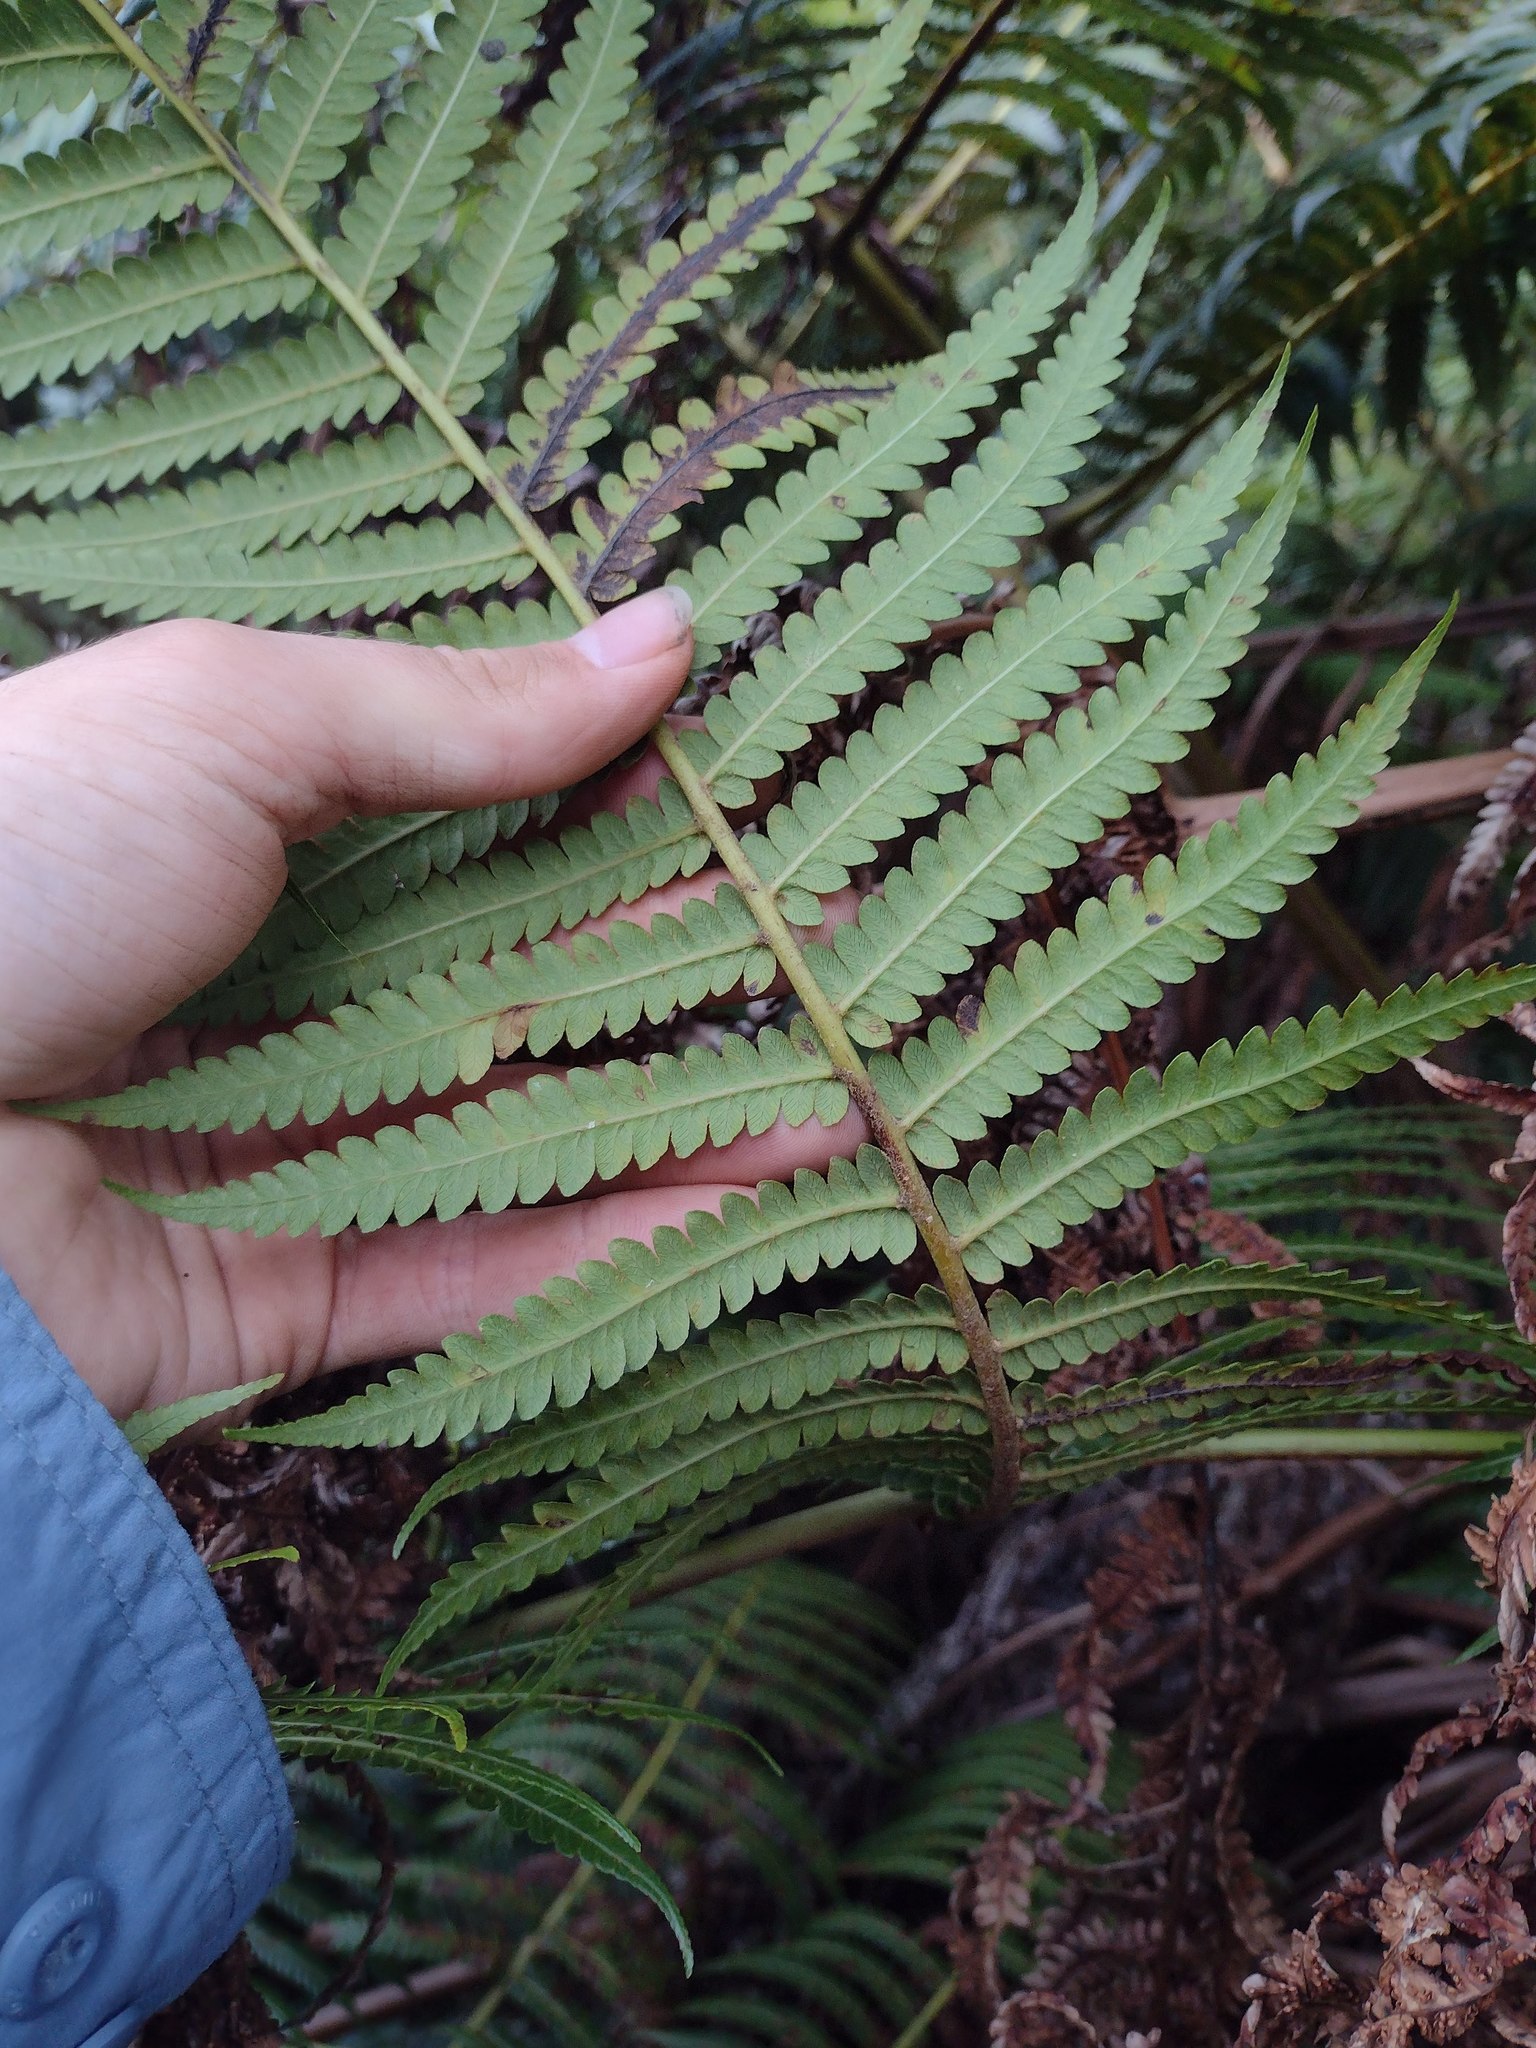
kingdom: Plantae
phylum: Tracheophyta
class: Polypodiopsida
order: Cyatheales
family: Cibotiaceae
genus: Cibotium
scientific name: Cibotium chamissoi
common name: Hawaiian tree fern
